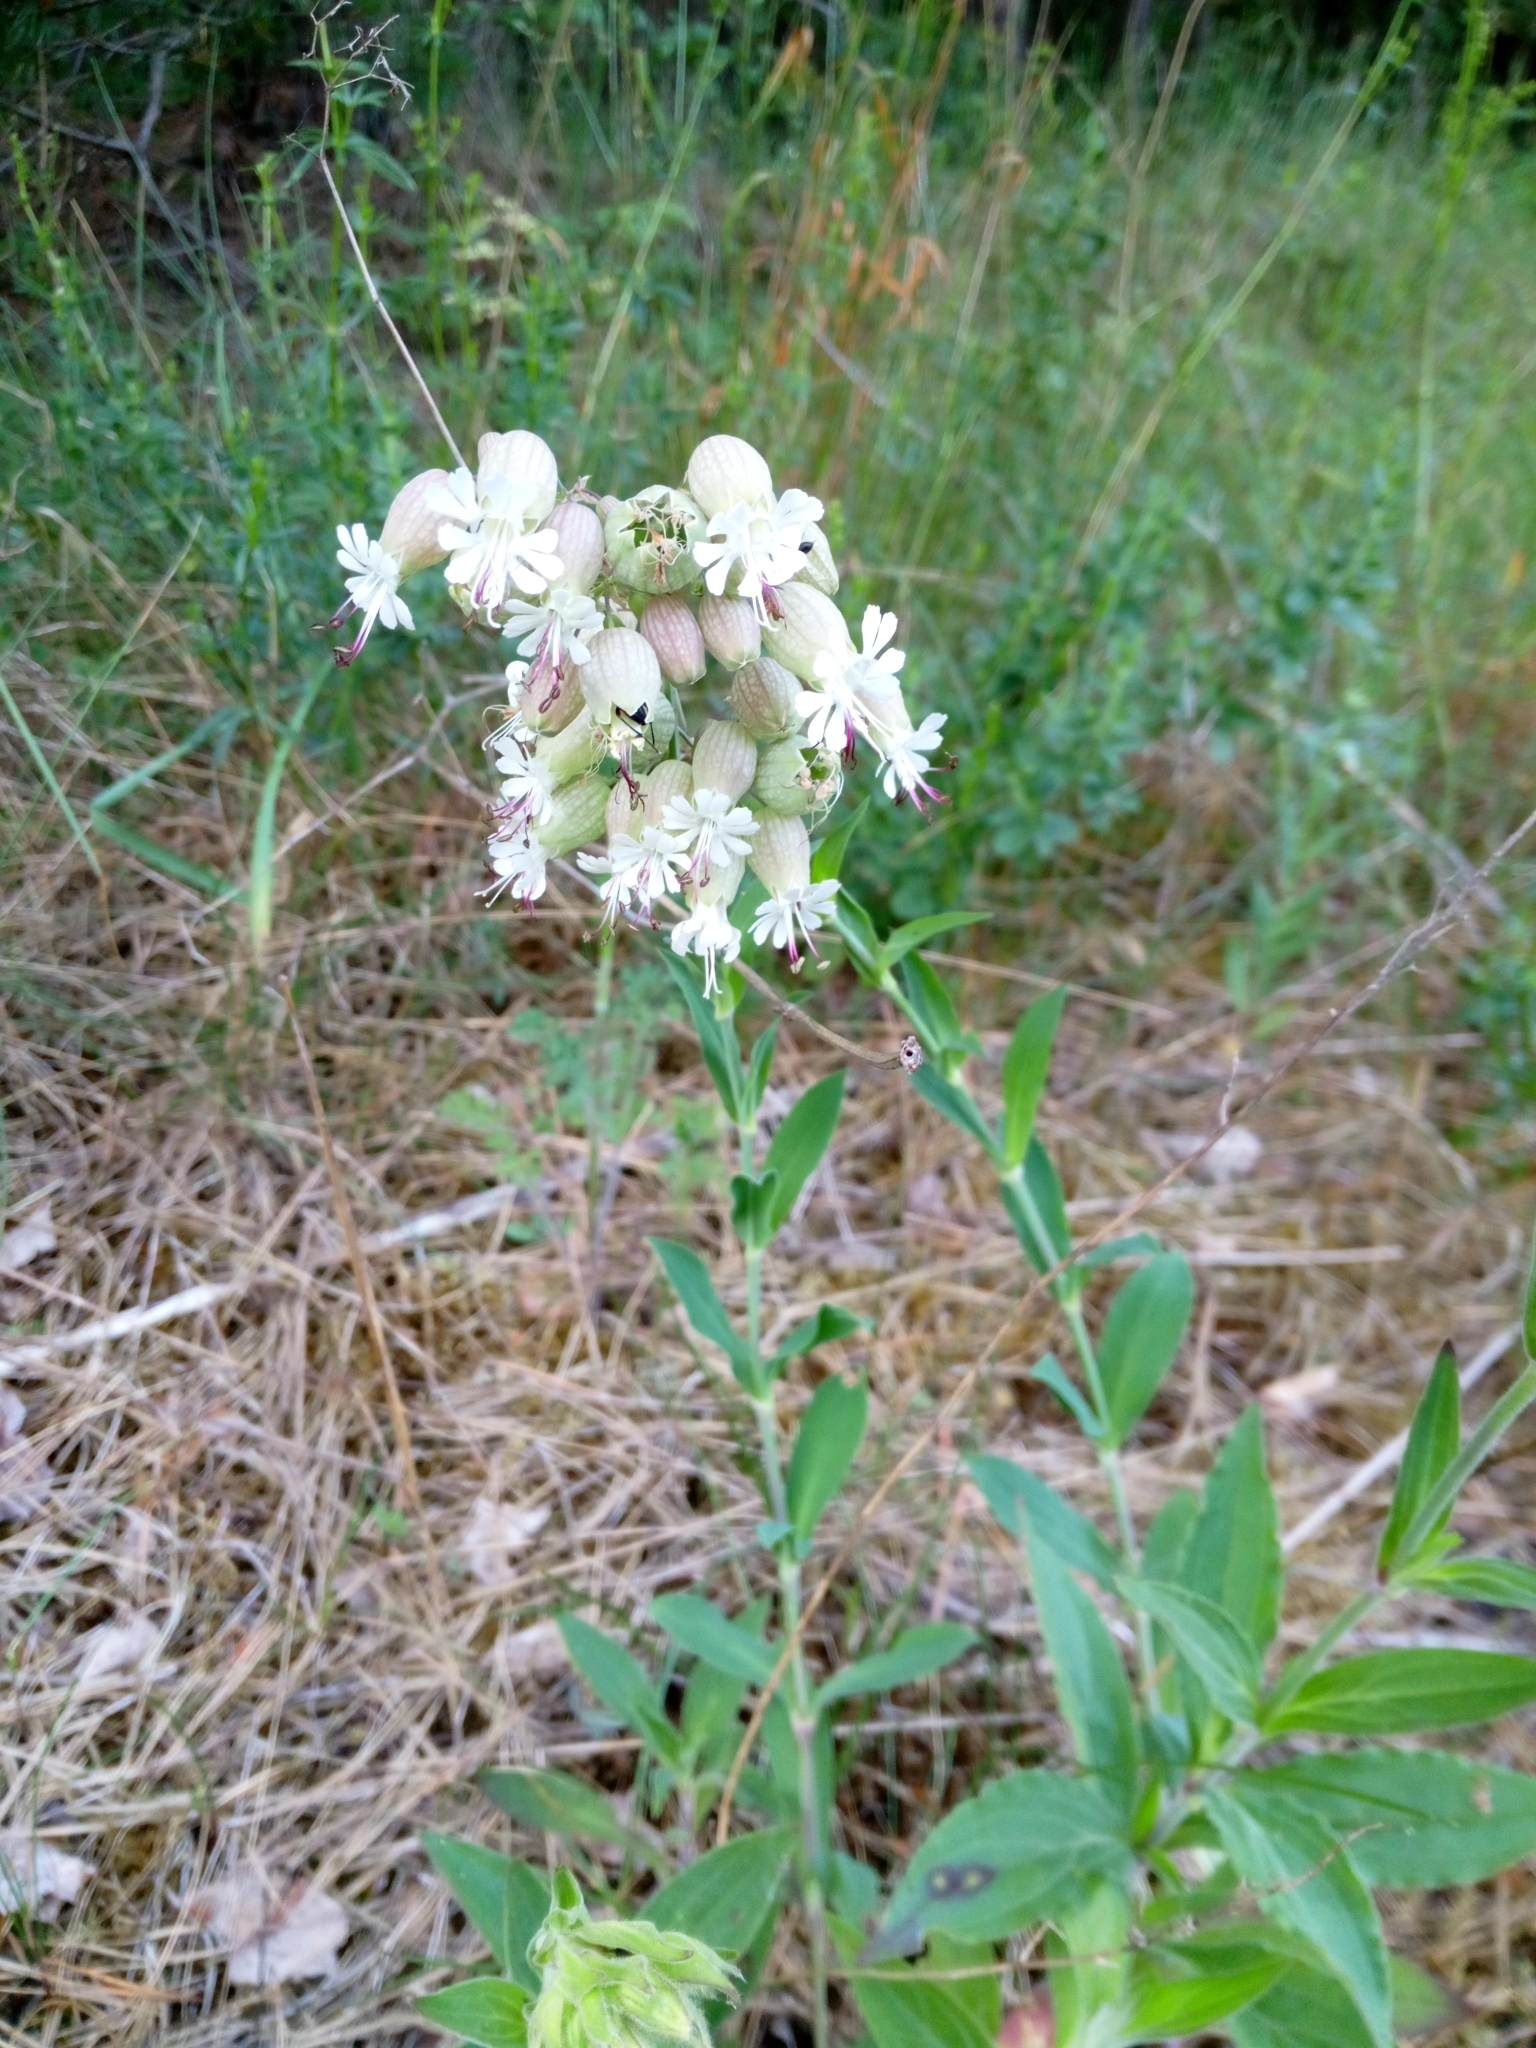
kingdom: Plantae
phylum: Tracheophyta
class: Magnoliopsida
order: Caryophyllales
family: Caryophyllaceae
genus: Silene
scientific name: Silene vulgaris
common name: Bladder campion
